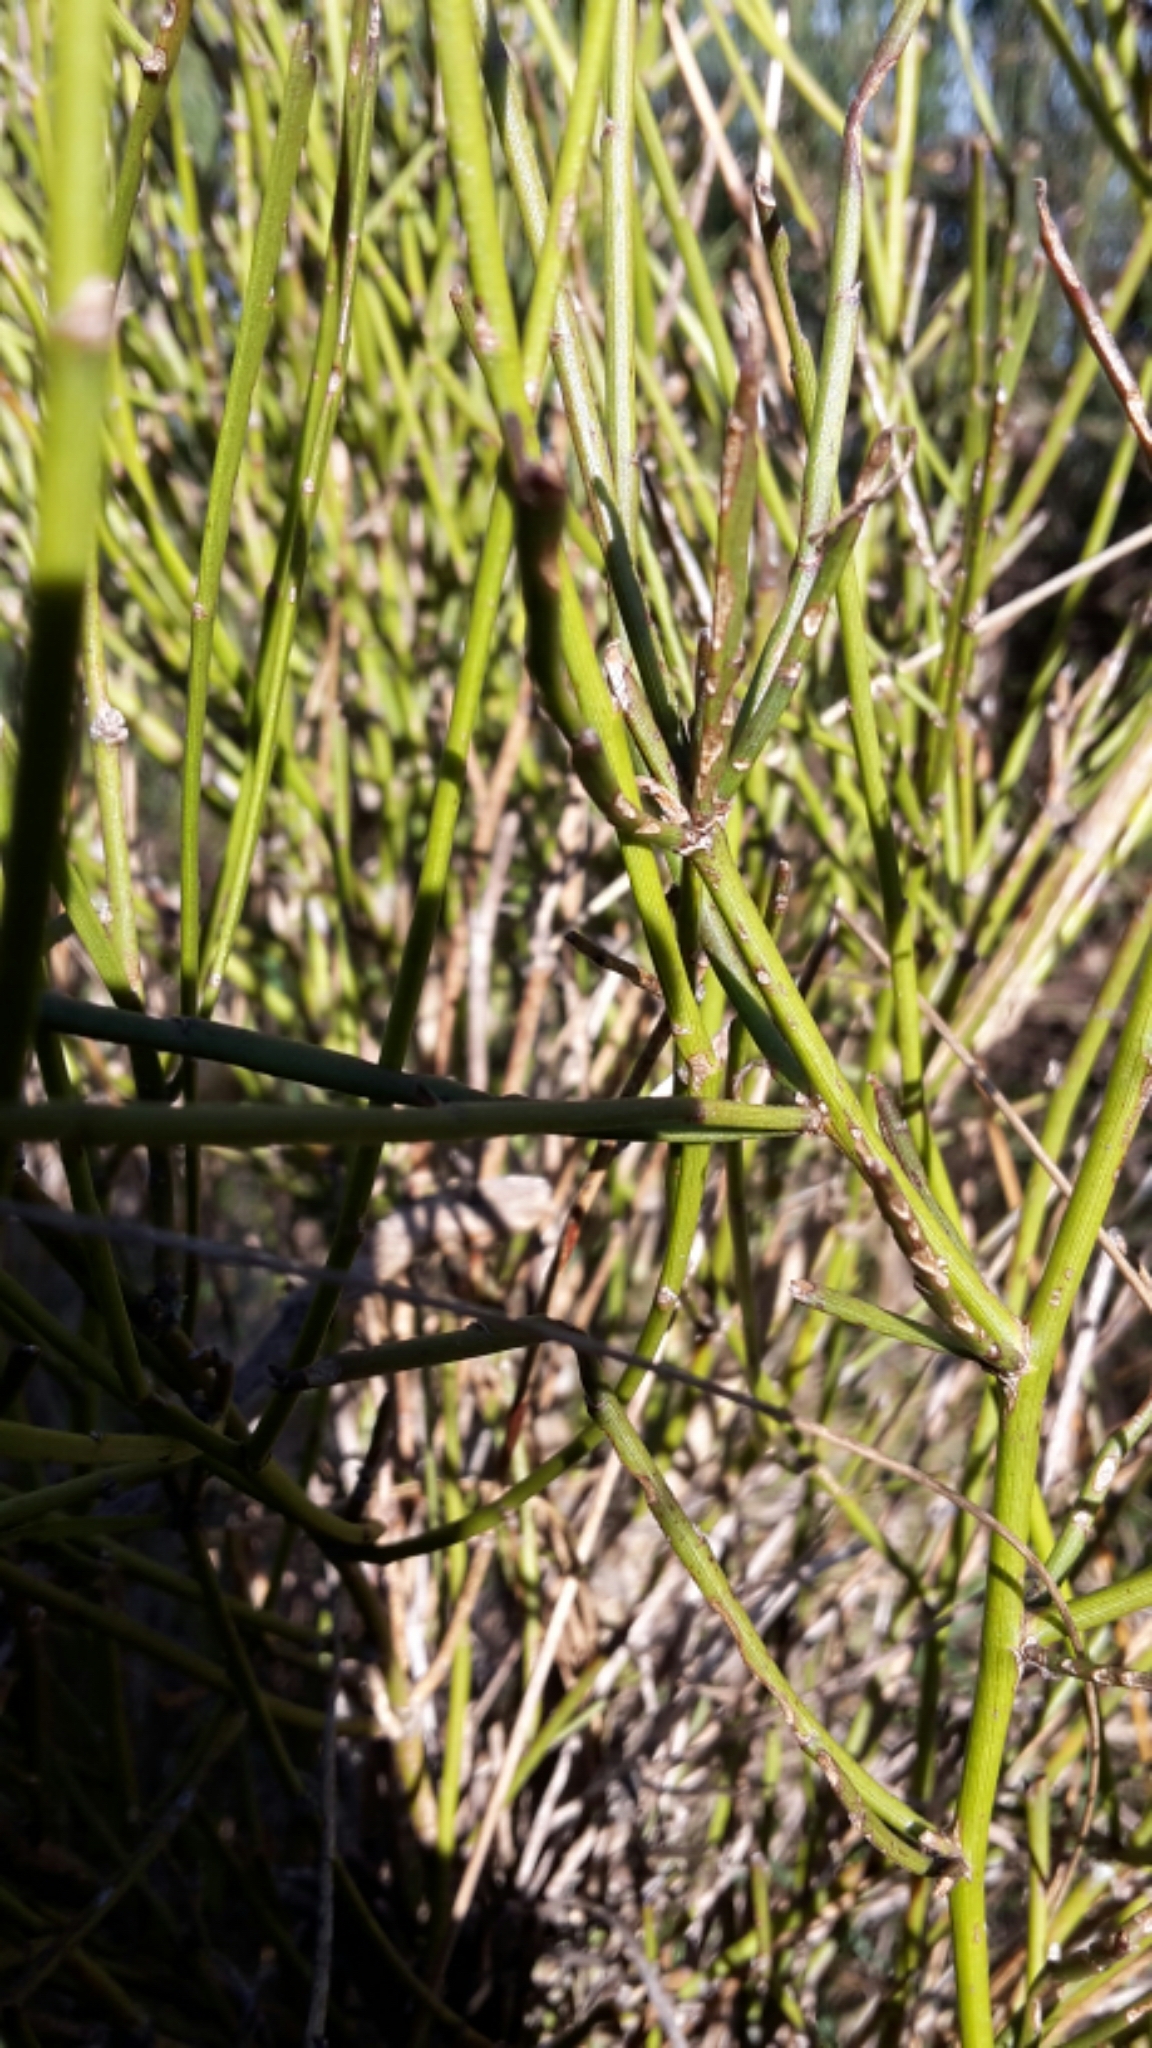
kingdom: Plantae
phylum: Tracheophyta
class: Magnoliopsida
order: Fabales
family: Fabaceae
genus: Carmichaelia
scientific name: Carmichaelia australis
